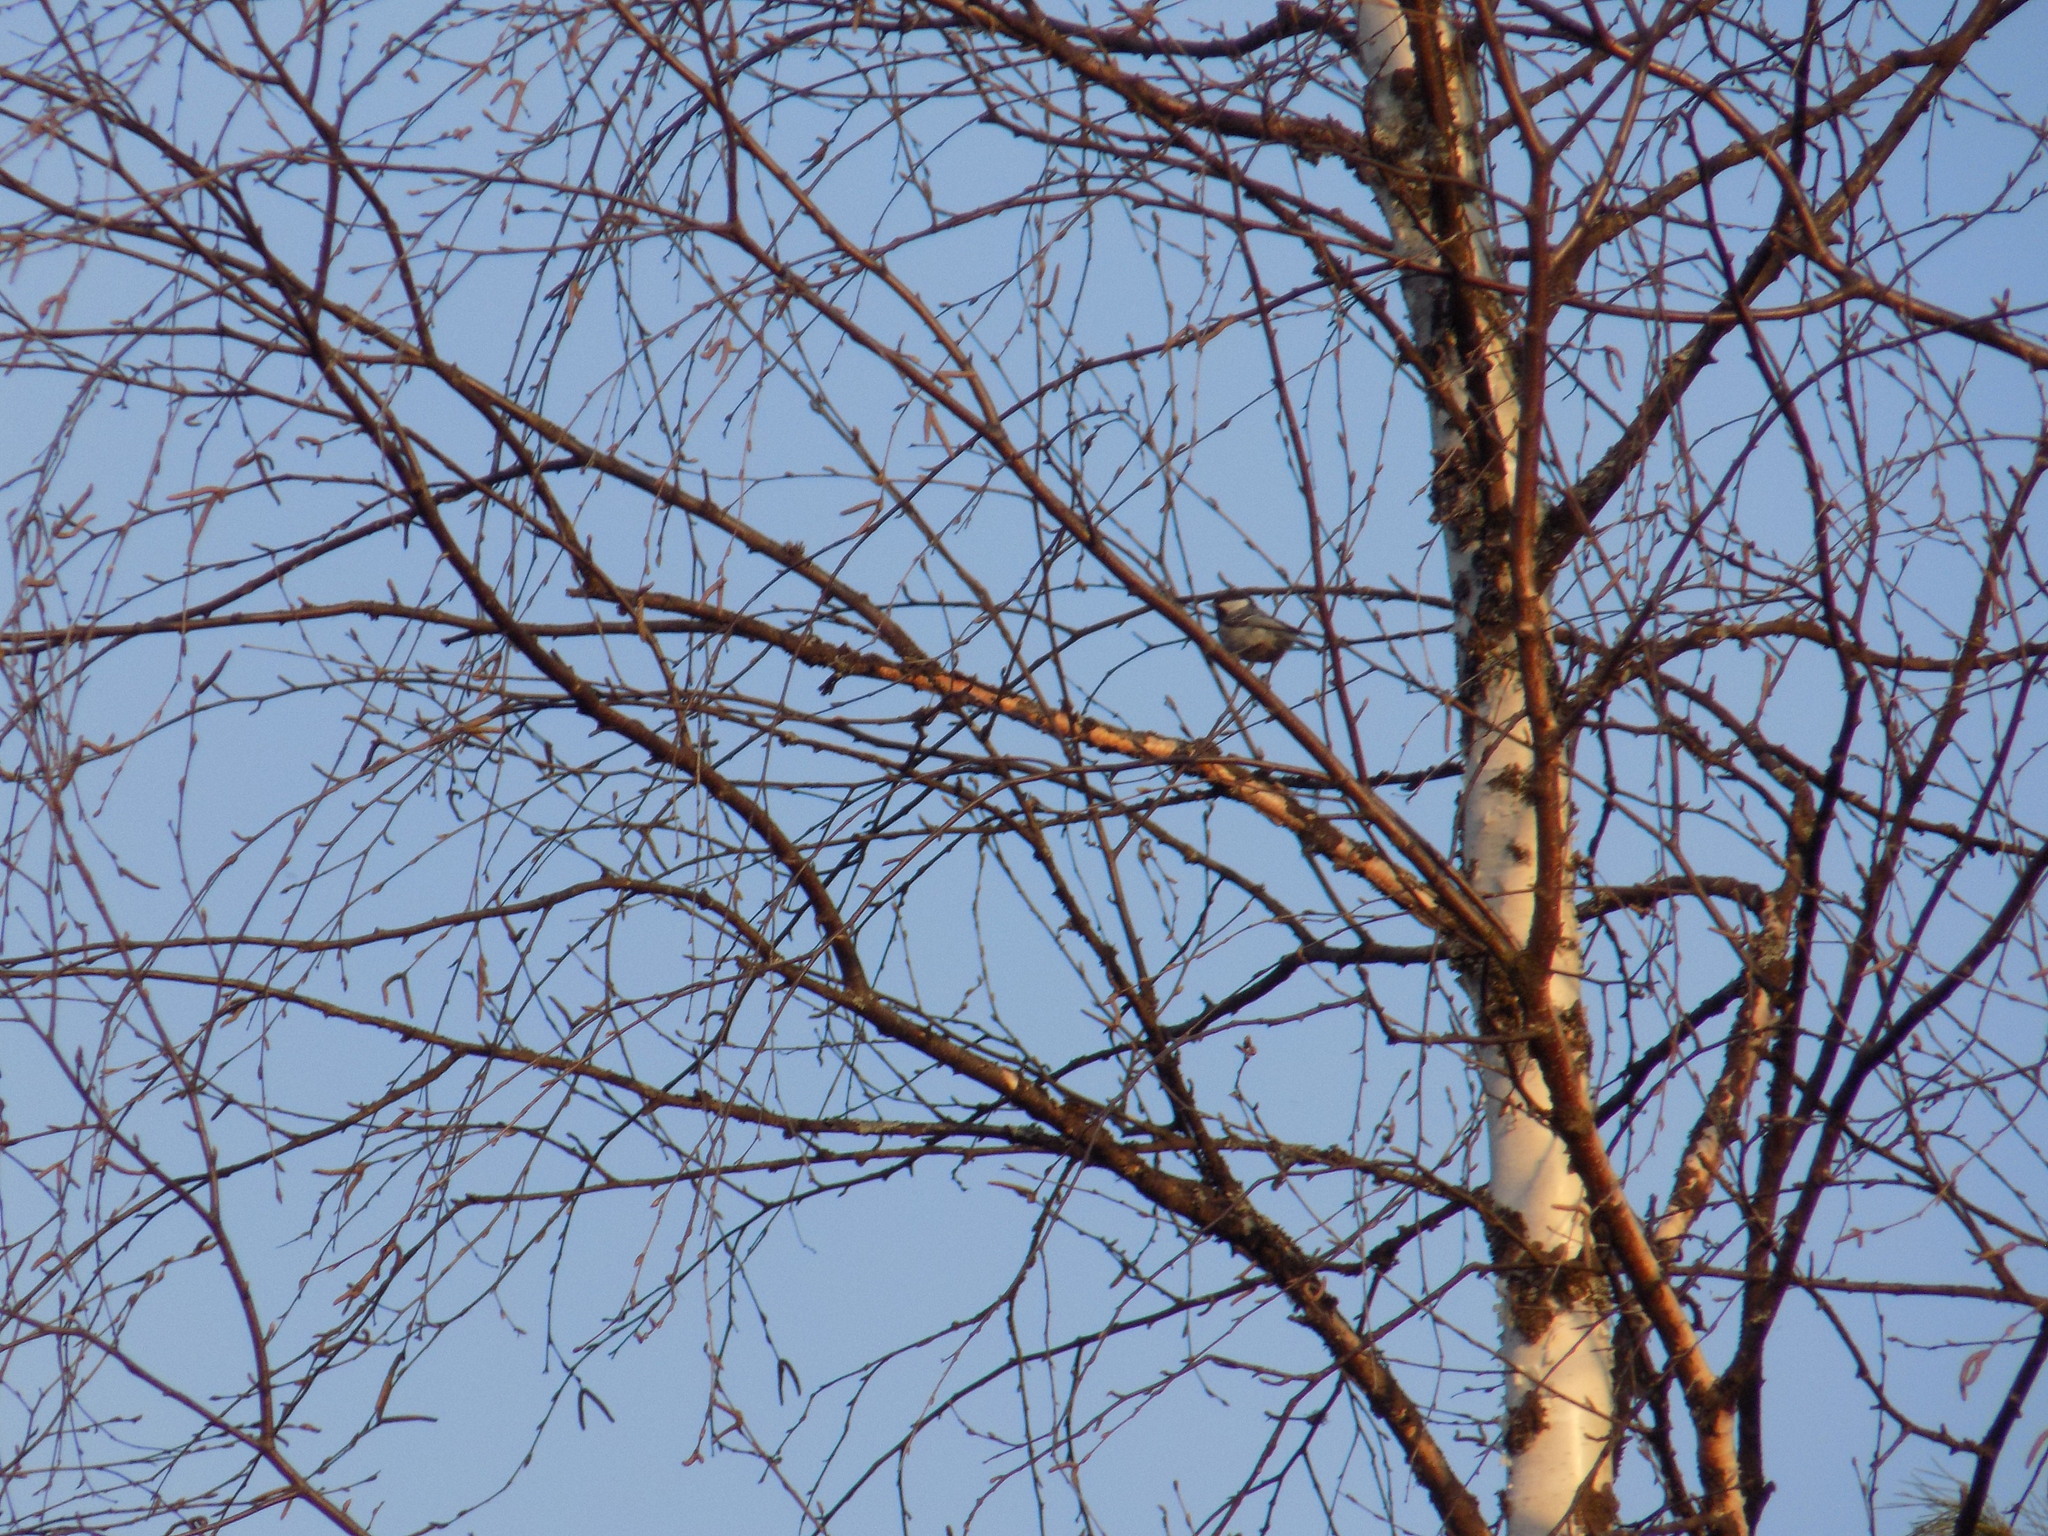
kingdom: Animalia
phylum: Chordata
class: Aves
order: Passeriformes
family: Paridae
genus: Periparus
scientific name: Periparus ater
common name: Coal tit
